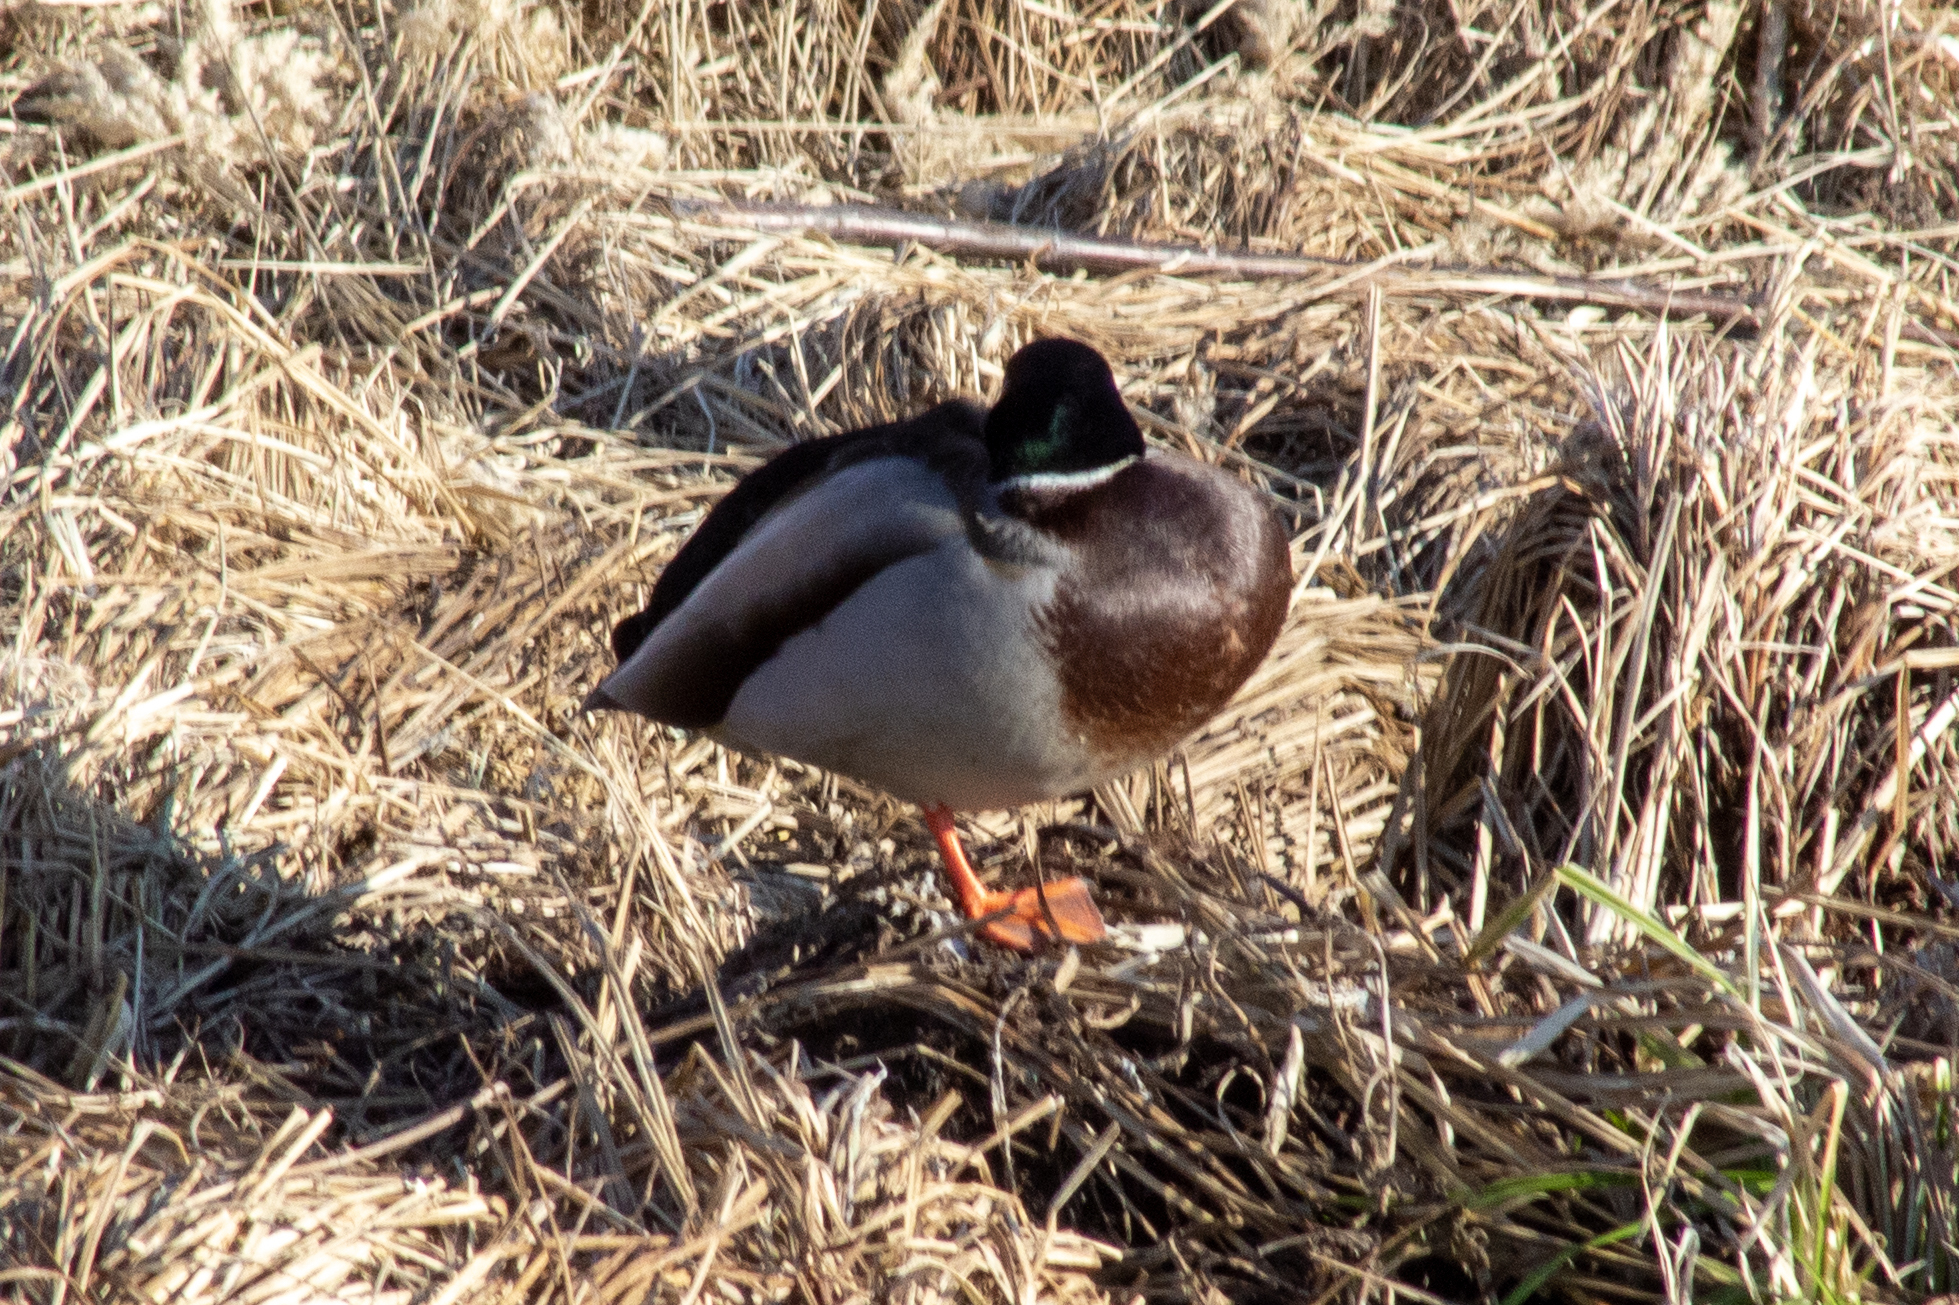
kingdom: Animalia
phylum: Chordata
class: Aves
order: Anseriformes
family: Anatidae
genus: Anas
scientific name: Anas platyrhynchos
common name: Mallard
